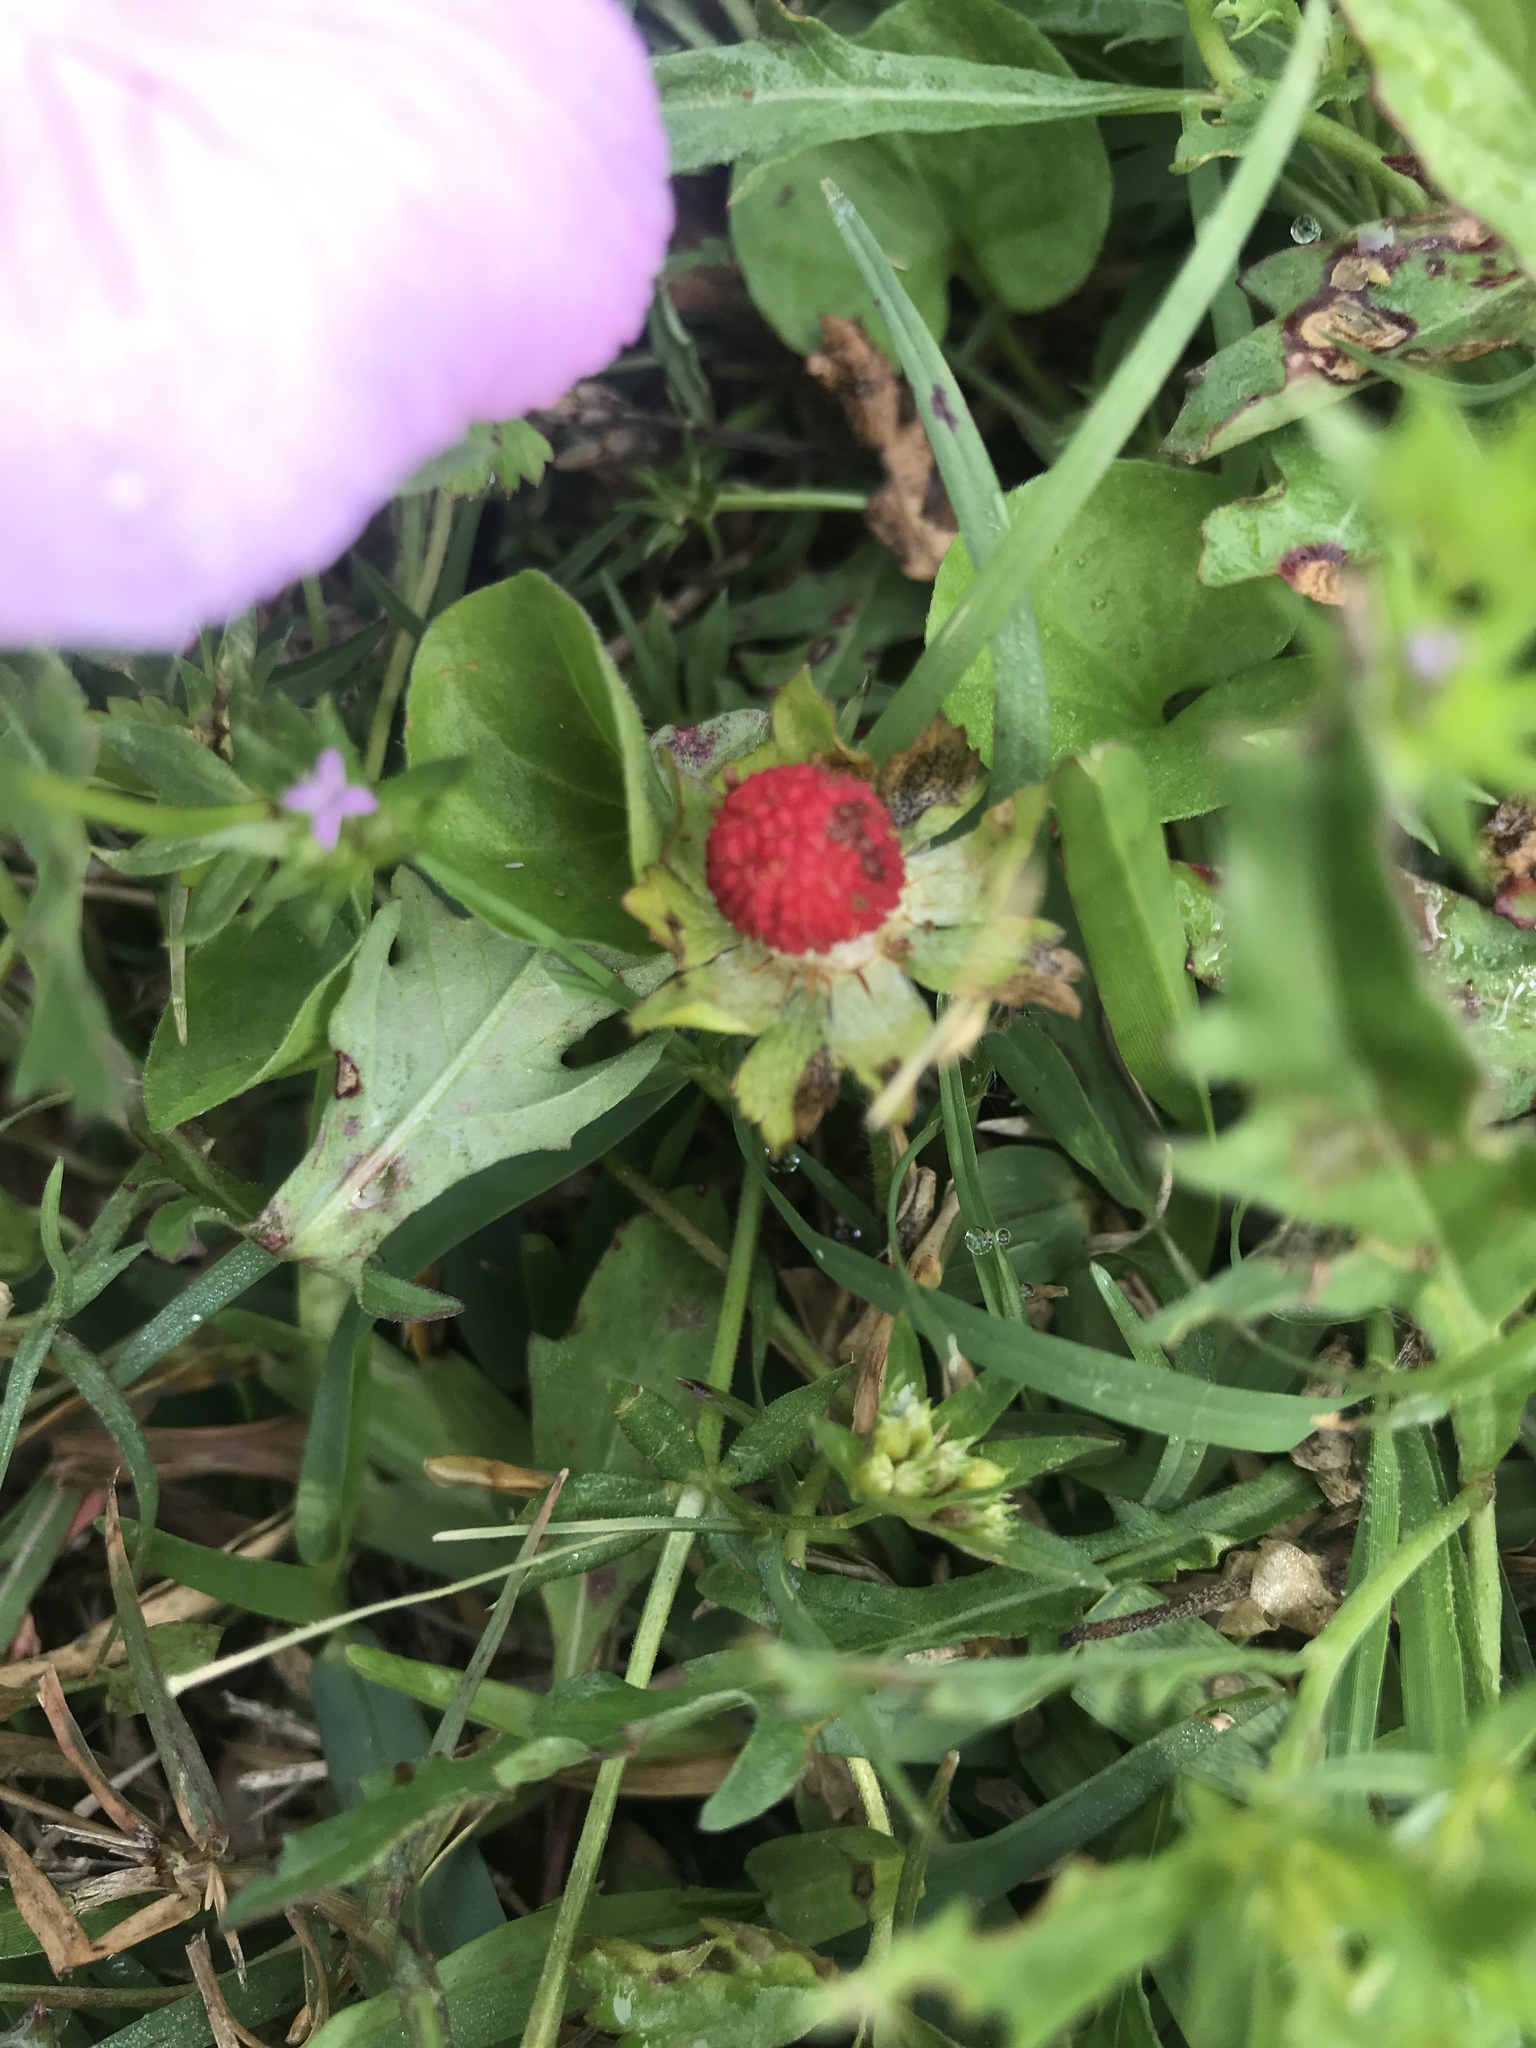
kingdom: Plantae
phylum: Tracheophyta
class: Magnoliopsida
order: Rosales
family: Rosaceae
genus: Potentilla
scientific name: Potentilla indica
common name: Yellow-flowered strawberry
